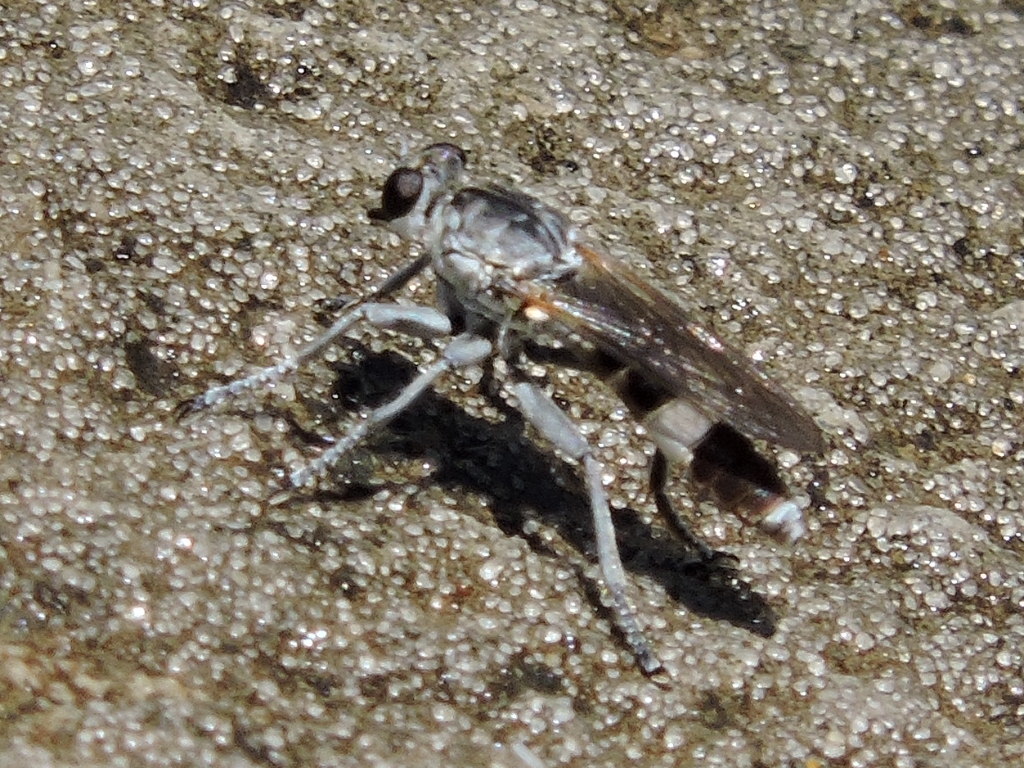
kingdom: Animalia
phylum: Arthropoda
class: Insecta
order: Diptera
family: Asilidae
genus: Stichopogon
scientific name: Stichopogon trifasciatus
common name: Three-banded robber fly
